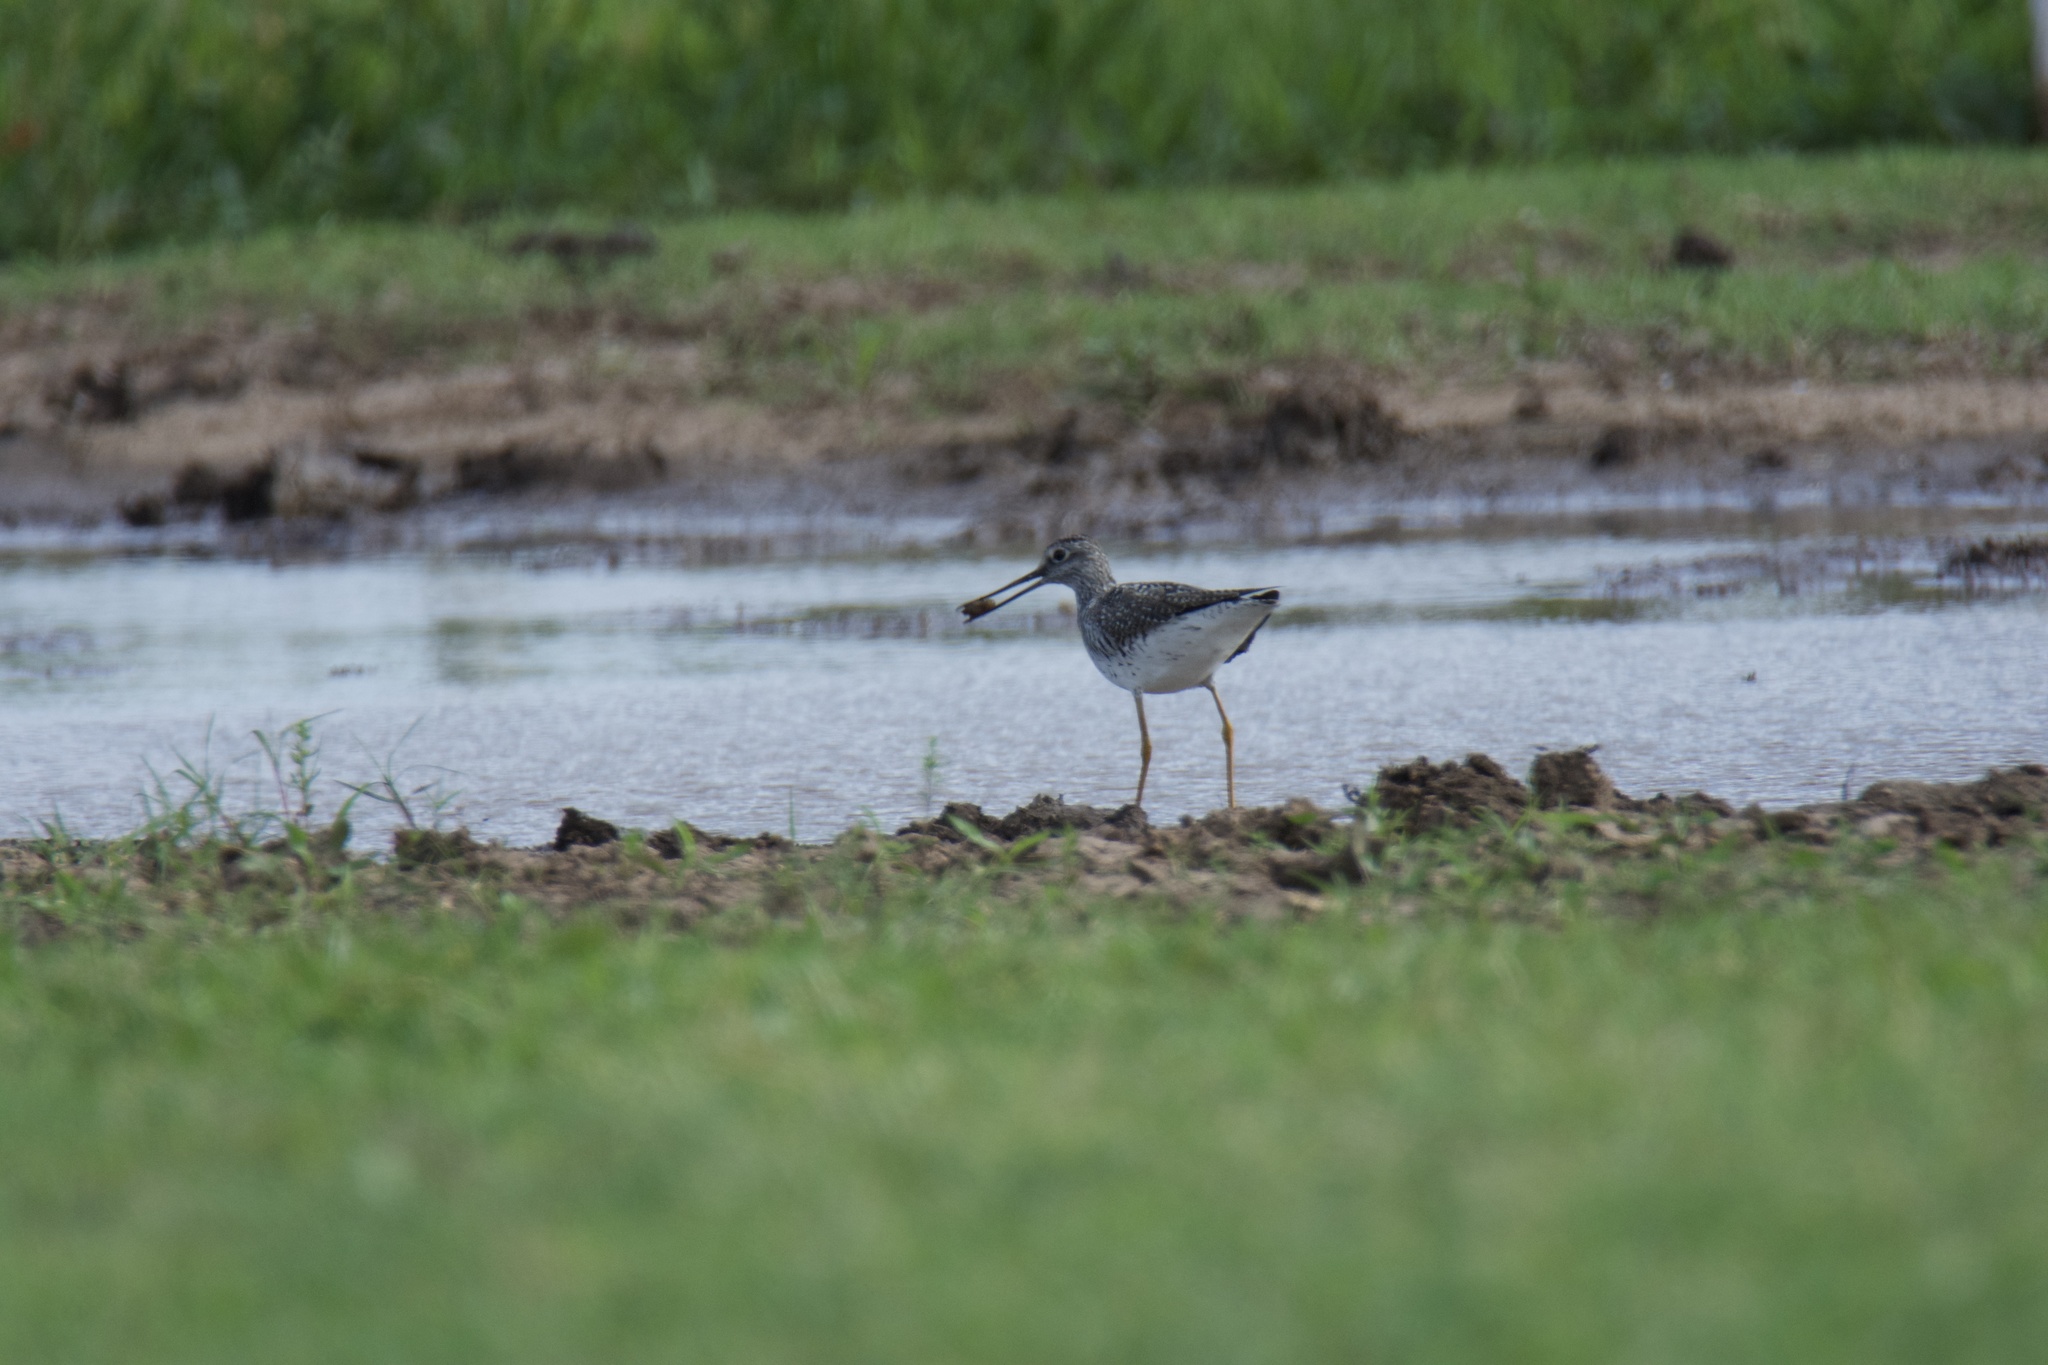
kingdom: Animalia
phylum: Chordata
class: Aves
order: Charadriiformes
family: Scolopacidae
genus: Tringa
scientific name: Tringa melanoleuca
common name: Greater yellowlegs
